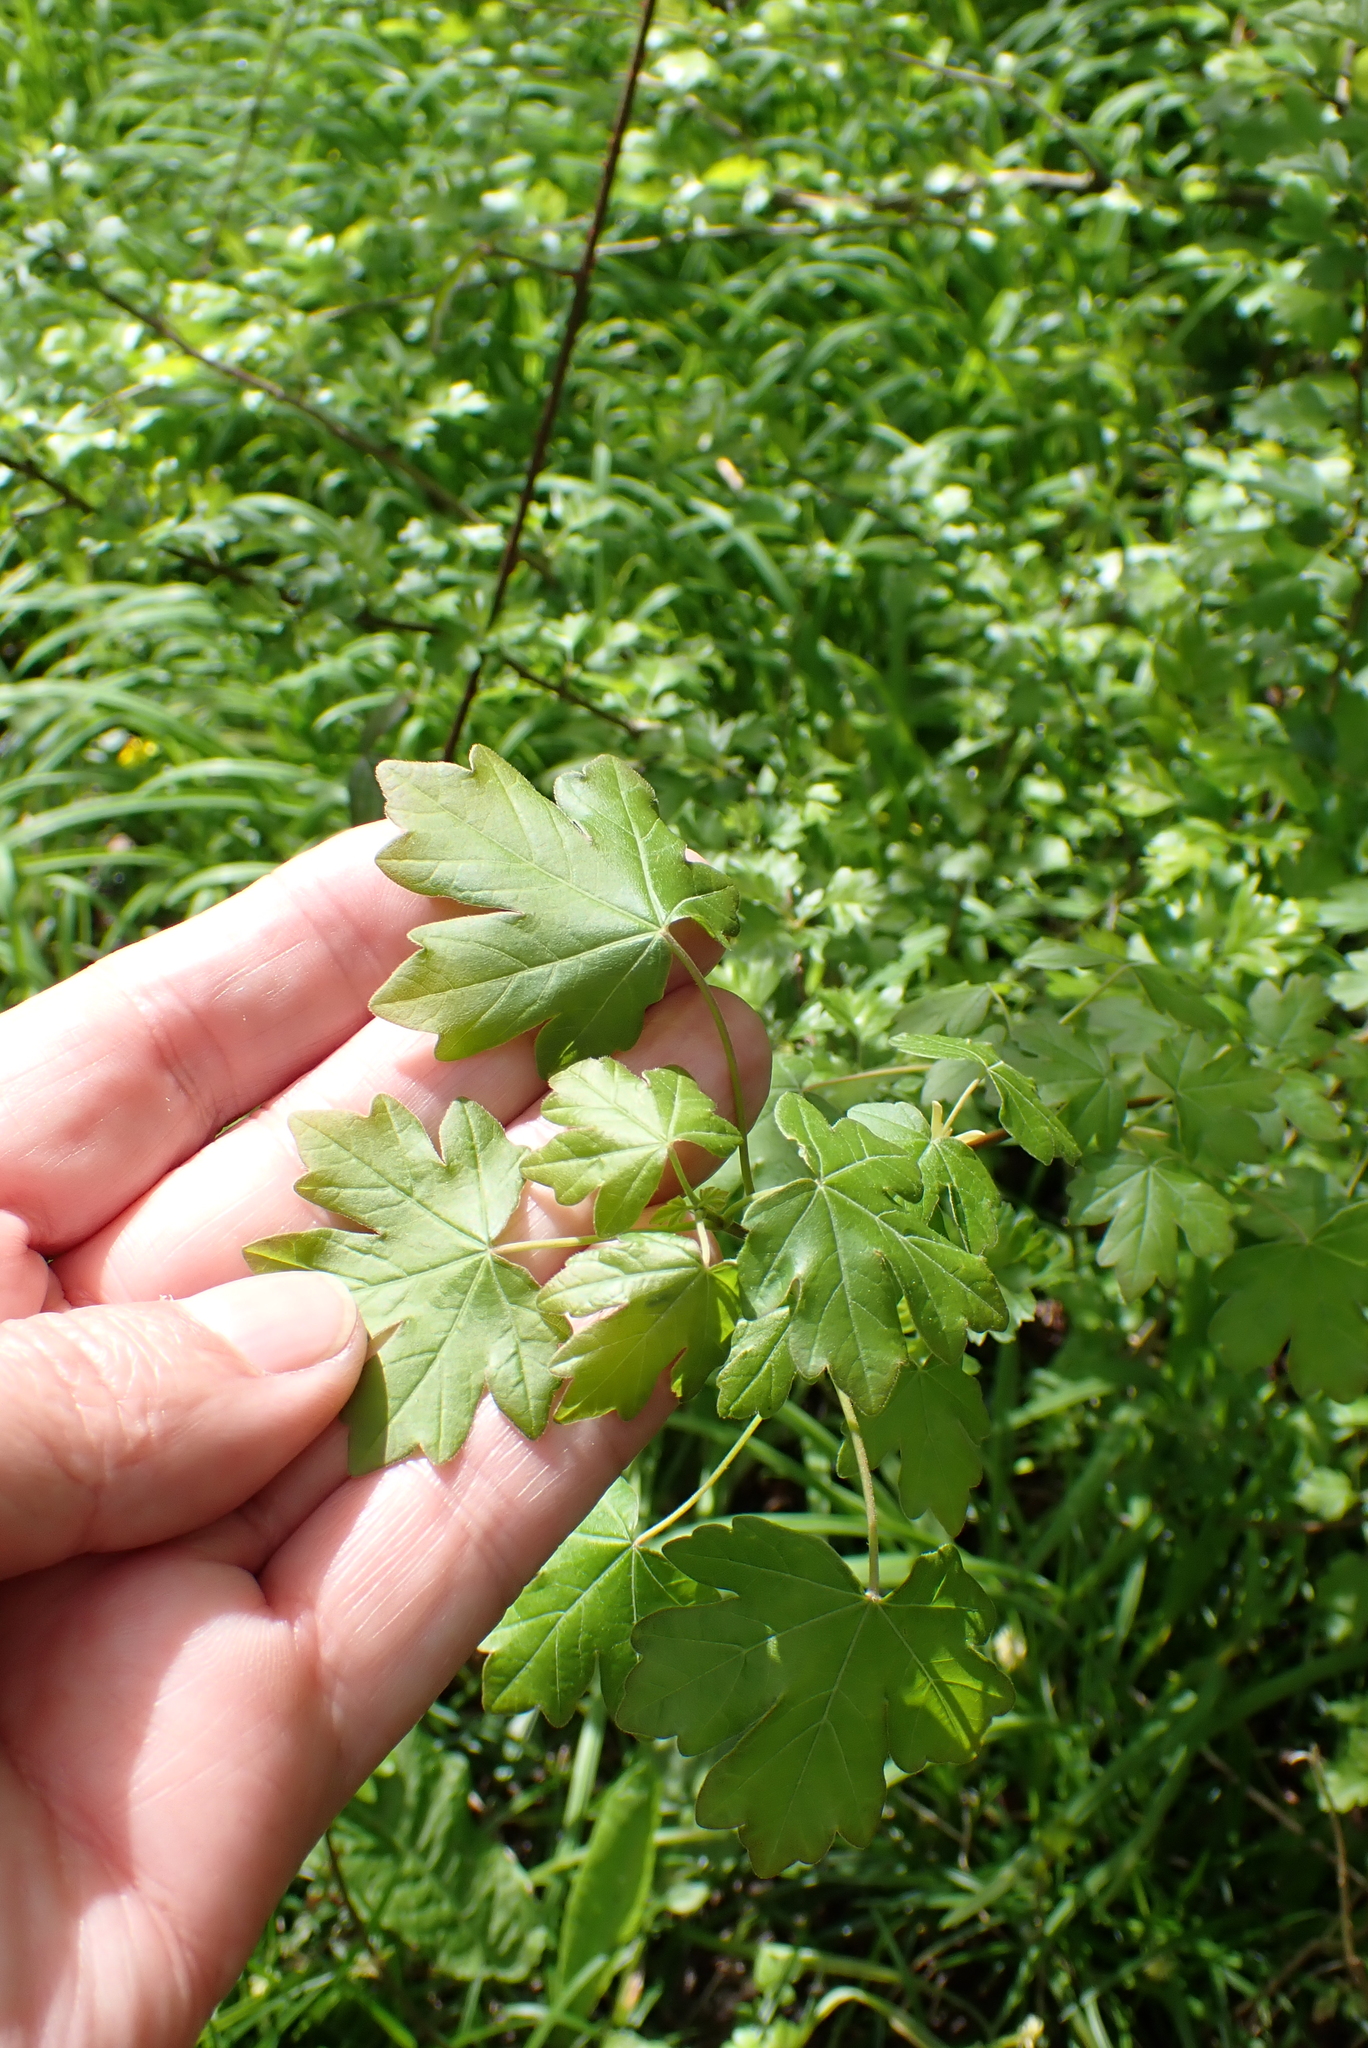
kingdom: Plantae
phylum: Tracheophyta
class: Magnoliopsida
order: Sapindales
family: Sapindaceae
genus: Acer
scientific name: Acer campestre
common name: Field maple
